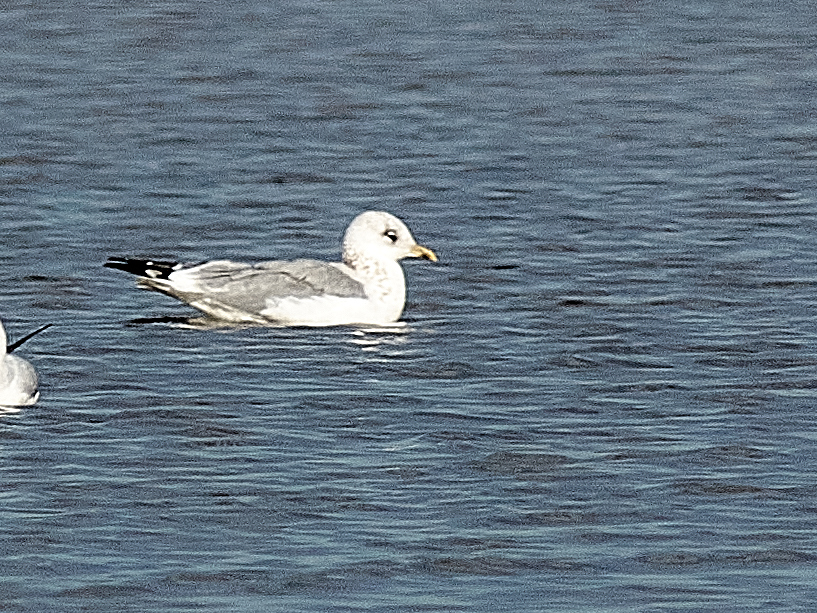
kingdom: Animalia
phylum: Chordata
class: Aves
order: Charadriiformes
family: Laridae
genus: Larus
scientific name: Larus canus
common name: Mew gull
